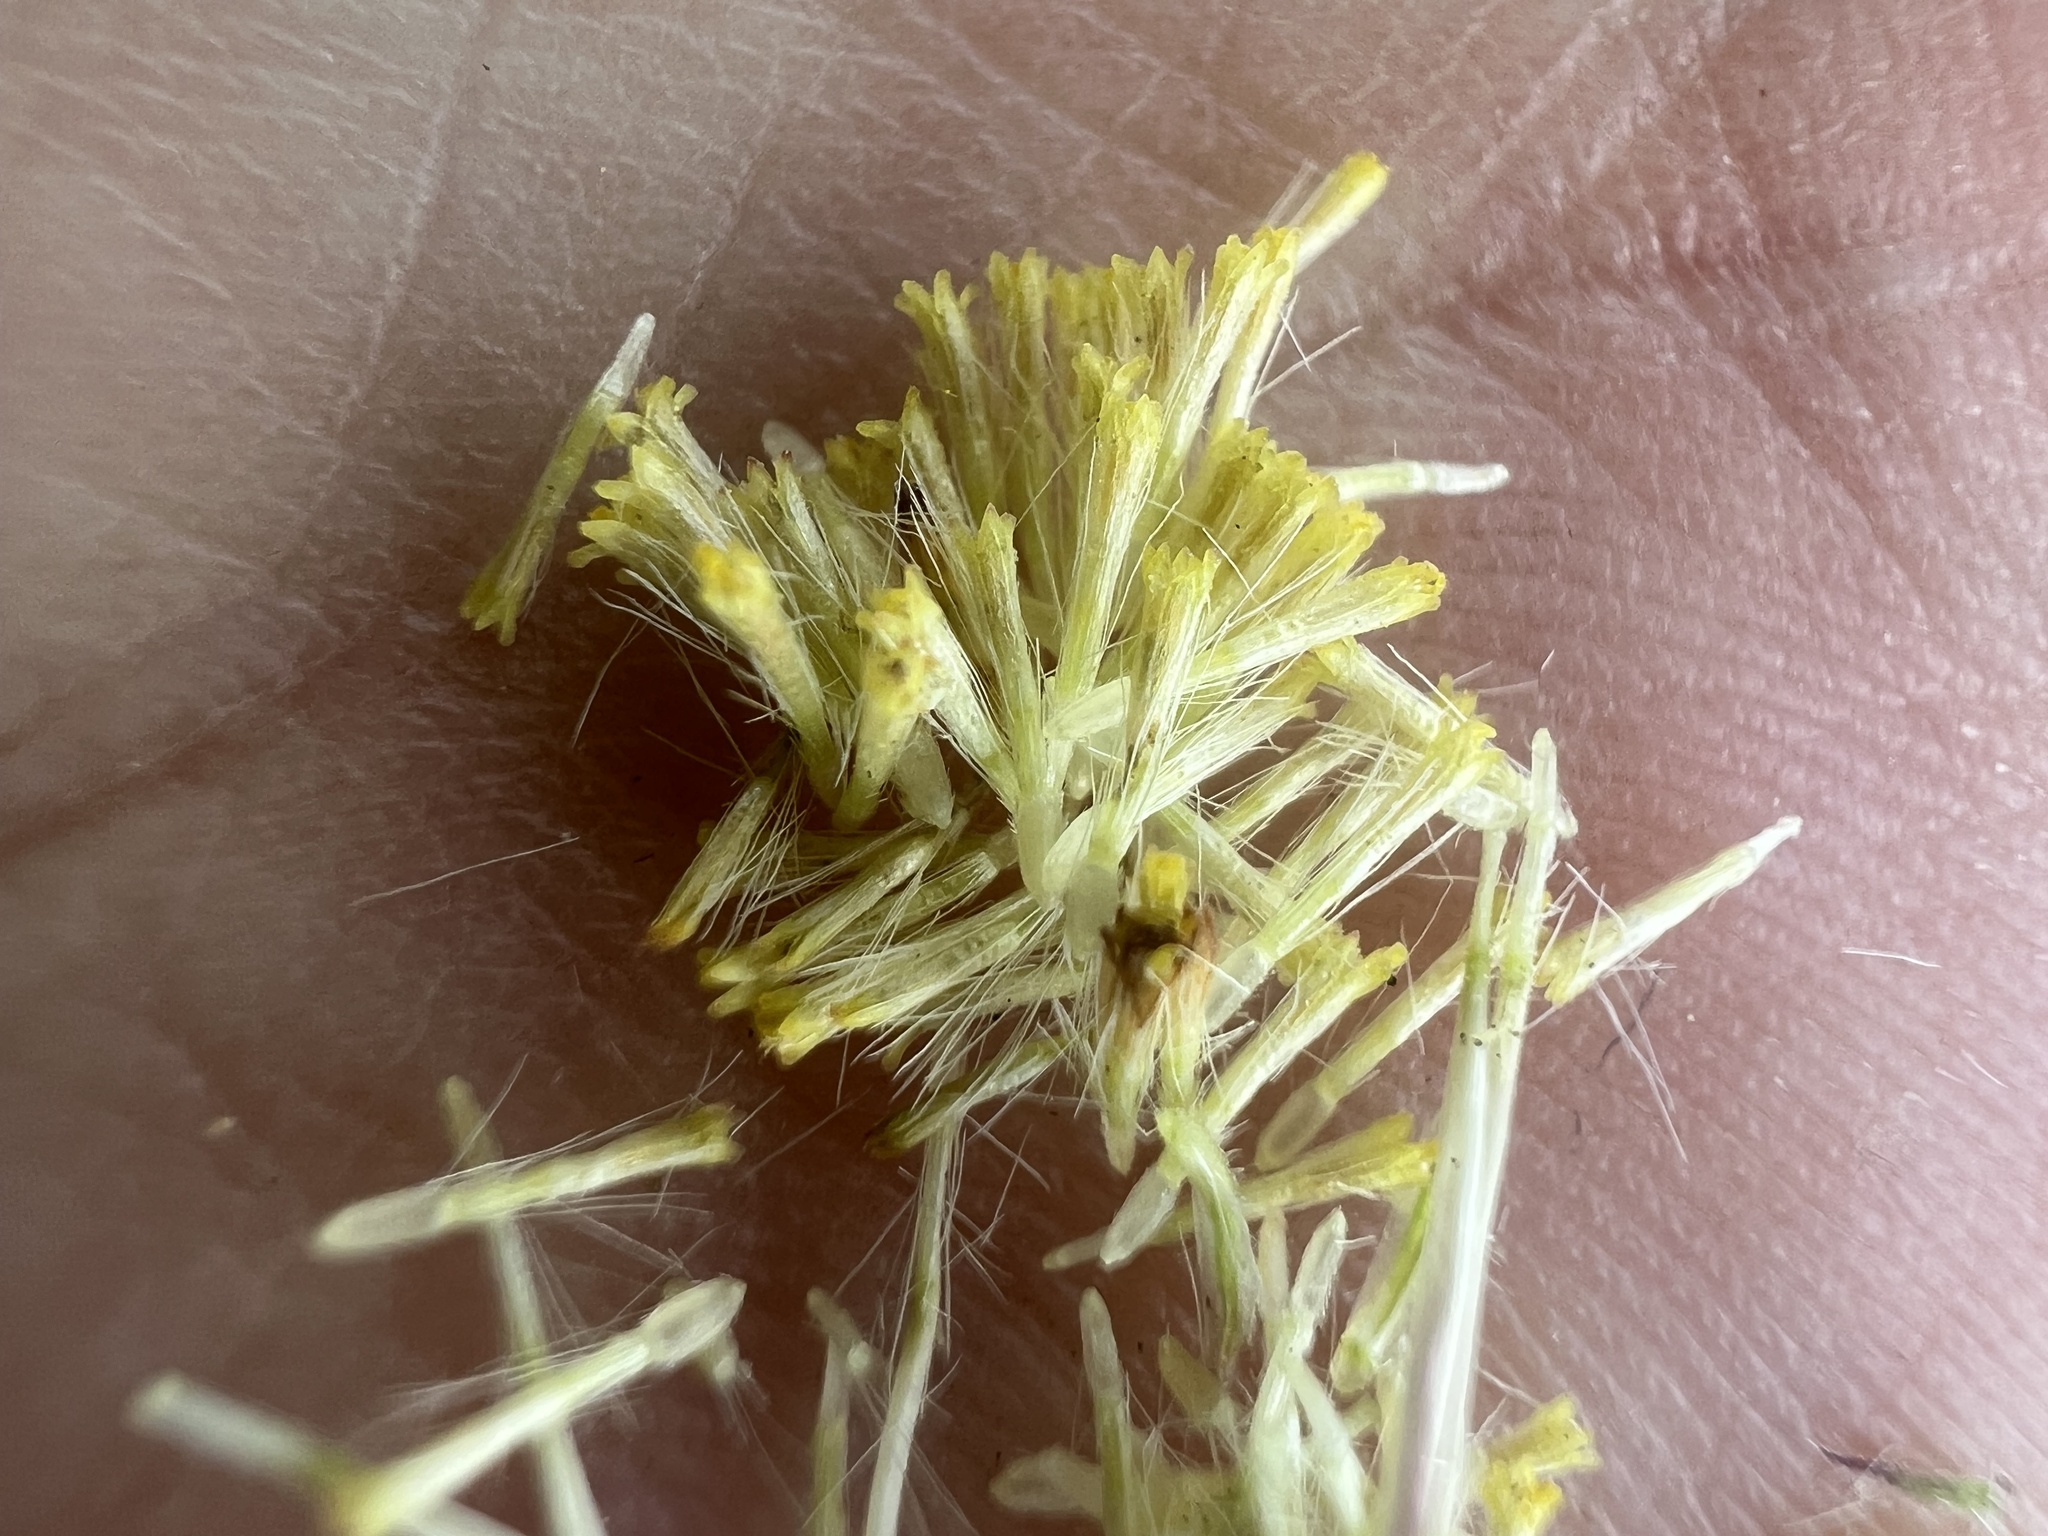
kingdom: Plantae
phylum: Tracheophyta
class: Magnoliopsida
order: Asterales
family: Asteraceae
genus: Erigeron
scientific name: Erigeron pumilus
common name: Shaggy fleabane
